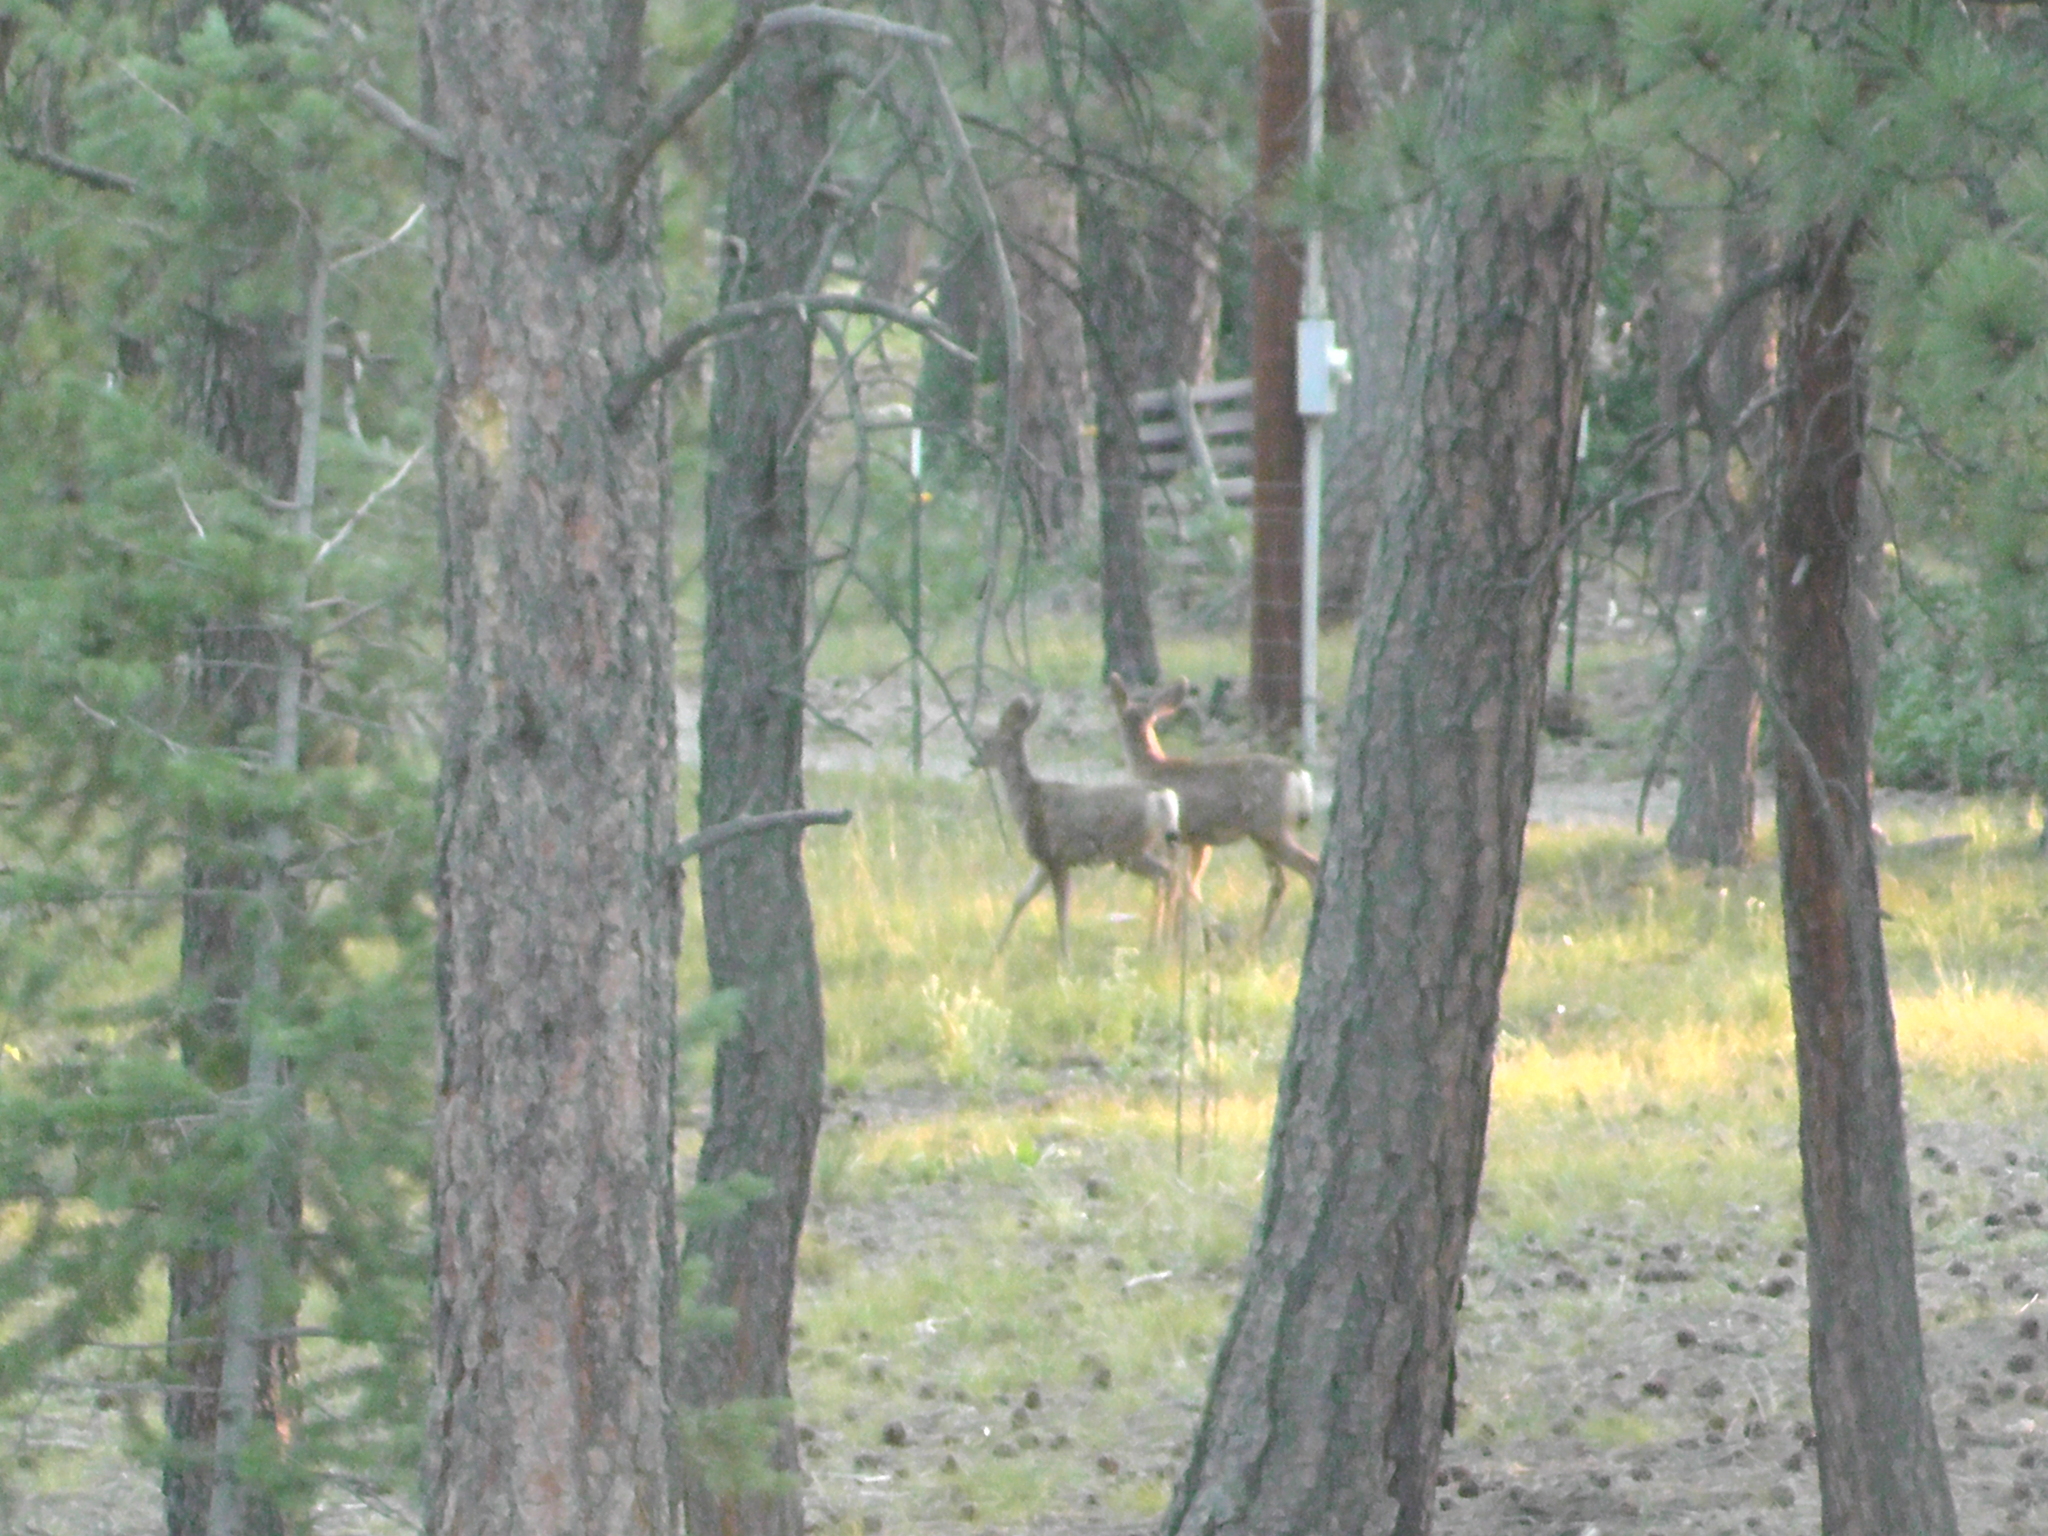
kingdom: Animalia
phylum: Chordata
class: Mammalia
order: Artiodactyla
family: Cervidae
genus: Odocoileus
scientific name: Odocoileus hemionus
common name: Mule deer
